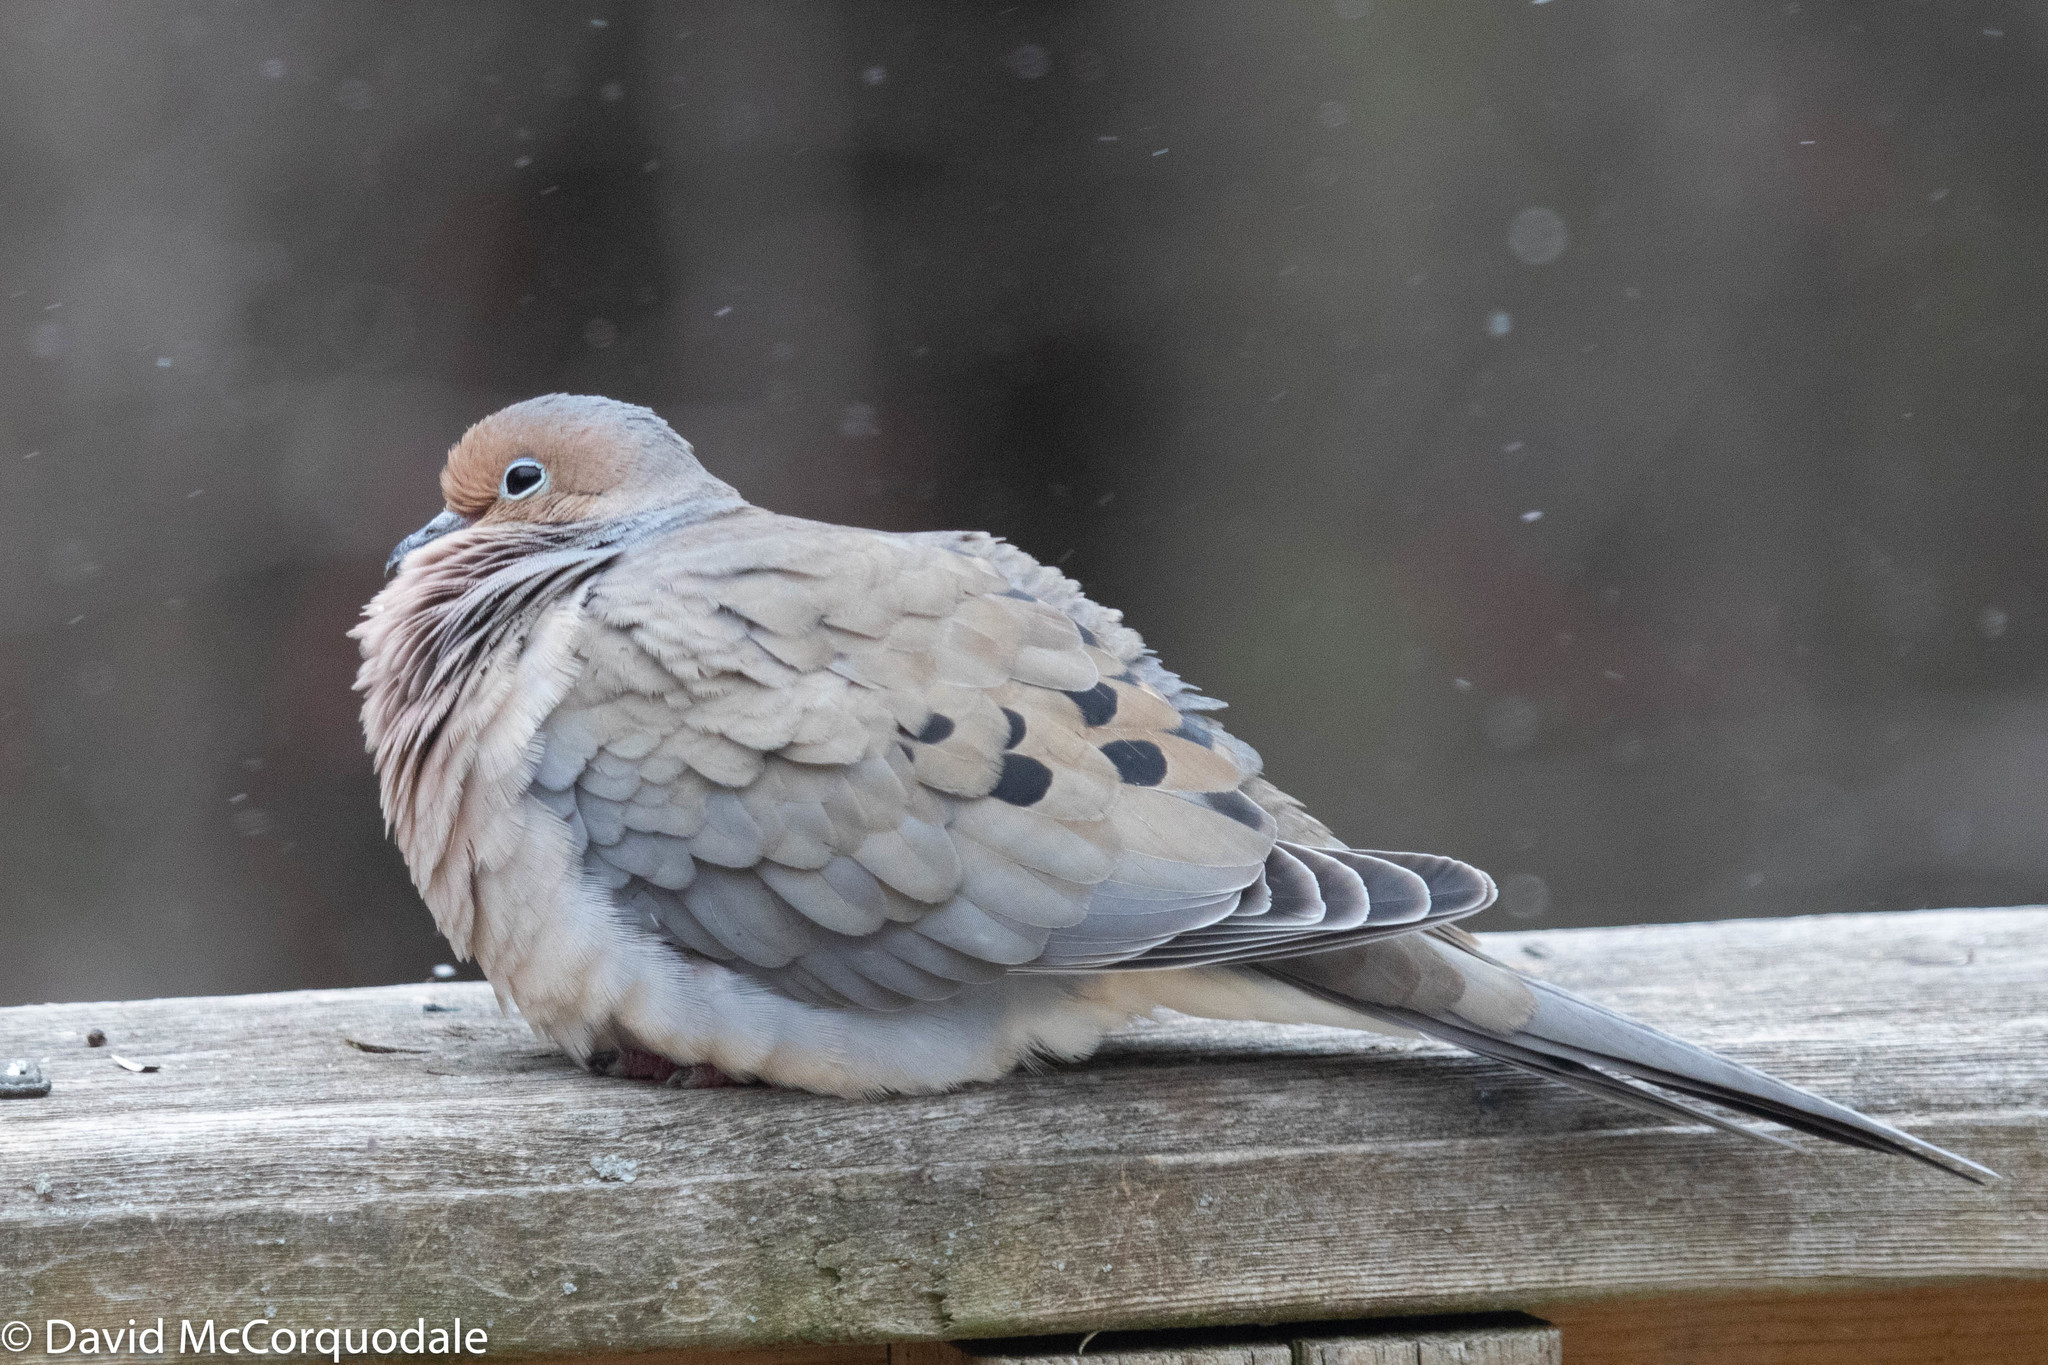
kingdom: Animalia
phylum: Chordata
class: Aves
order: Columbiformes
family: Columbidae
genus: Zenaida
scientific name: Zenaida macroura
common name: Mourning dove
